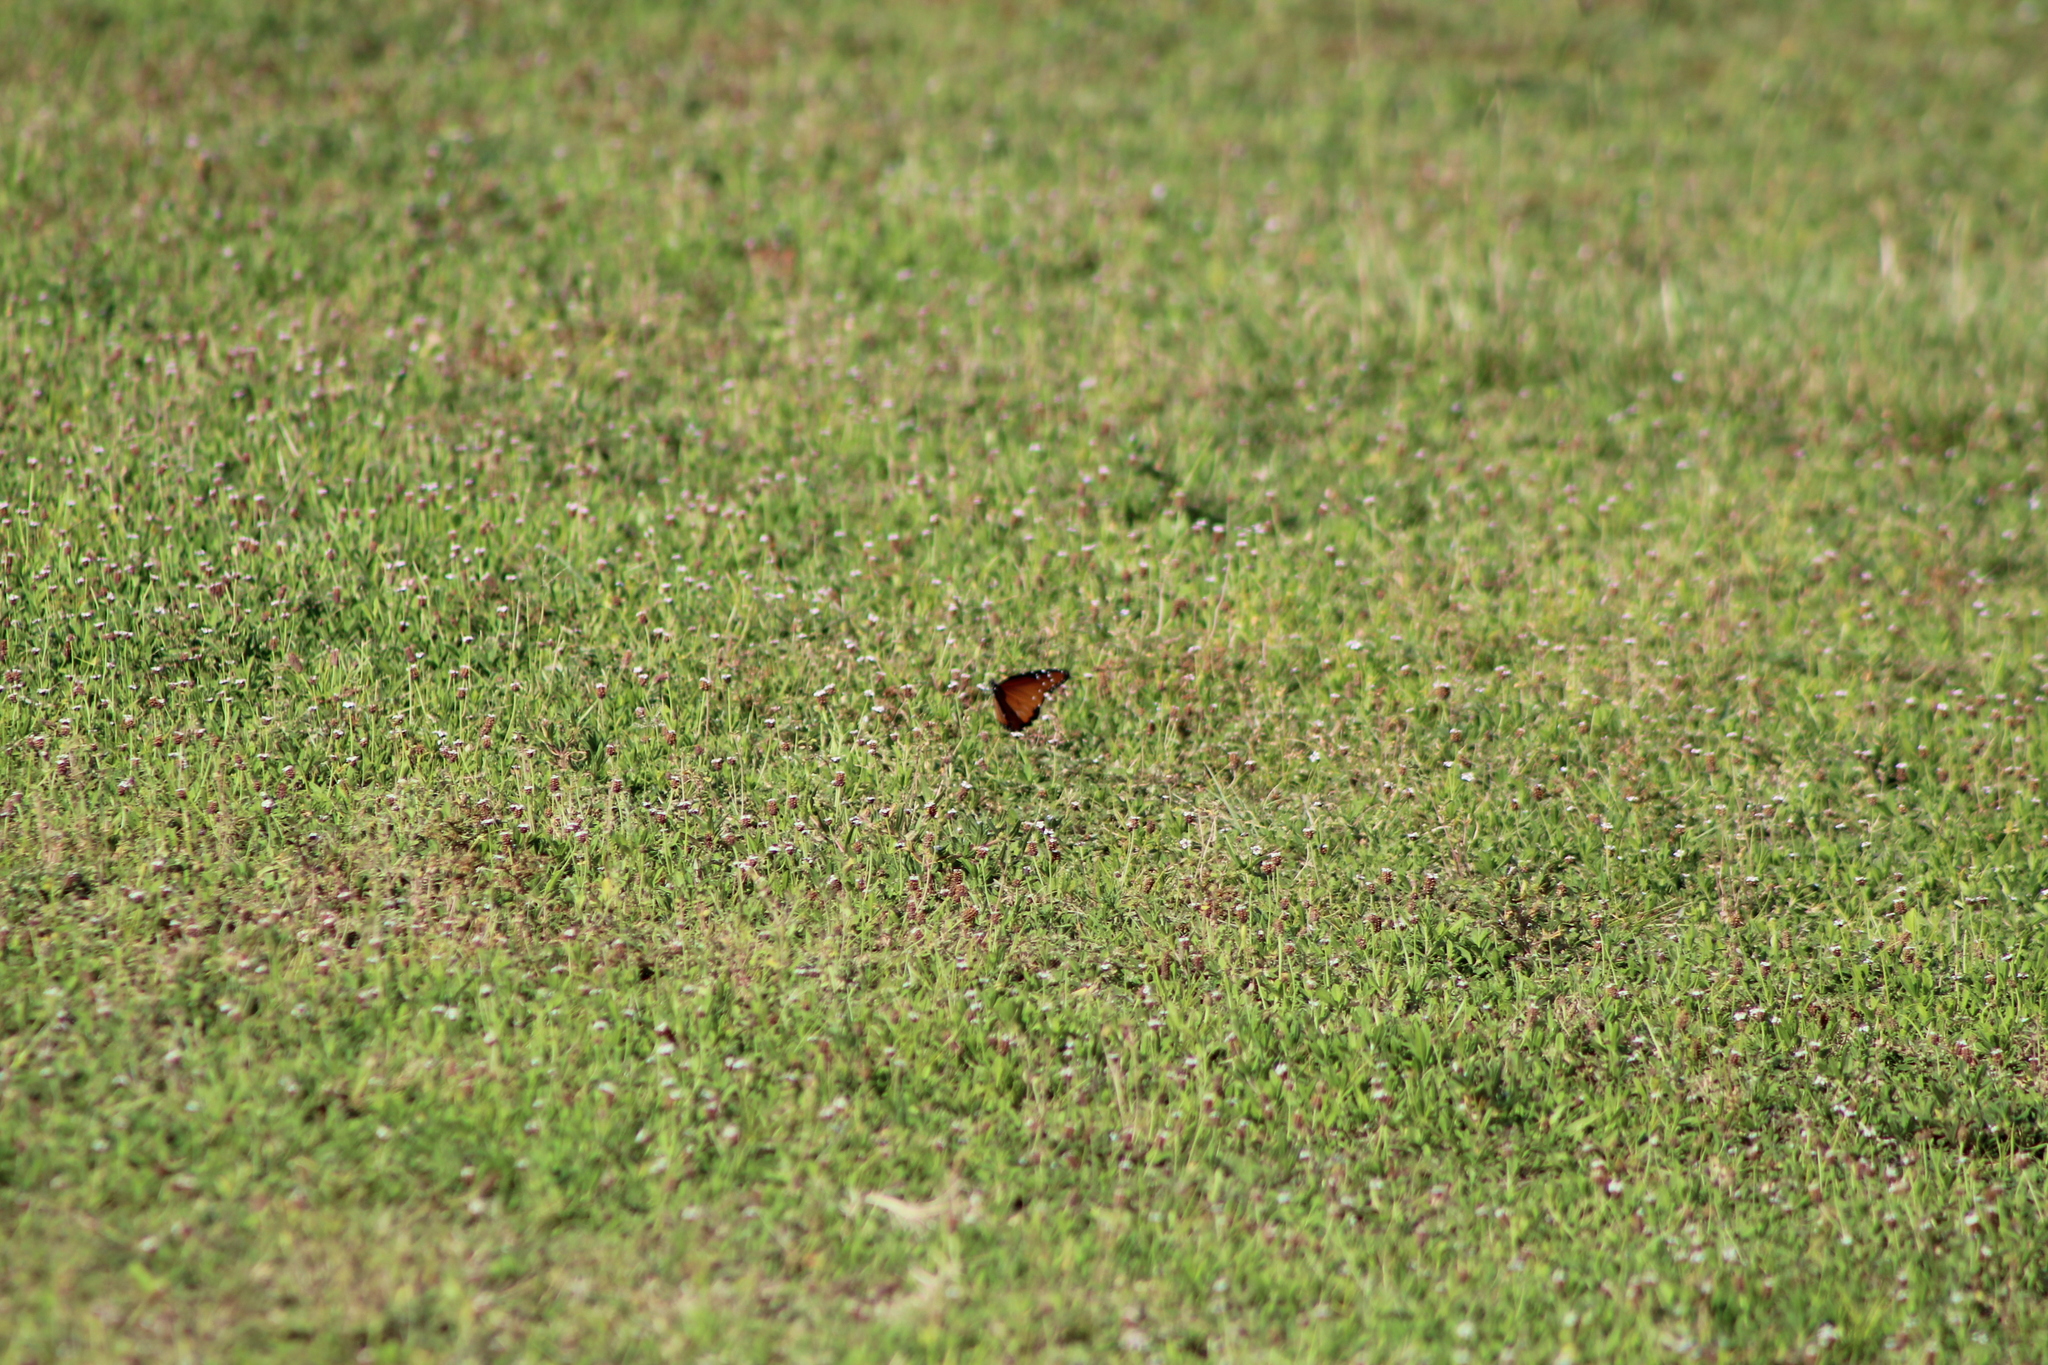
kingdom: Animalia
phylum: Arthropoda
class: Insecta
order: Lepidoptera
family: Nymphalidae
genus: Danaus
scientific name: Danaus gilippus
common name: Queen
